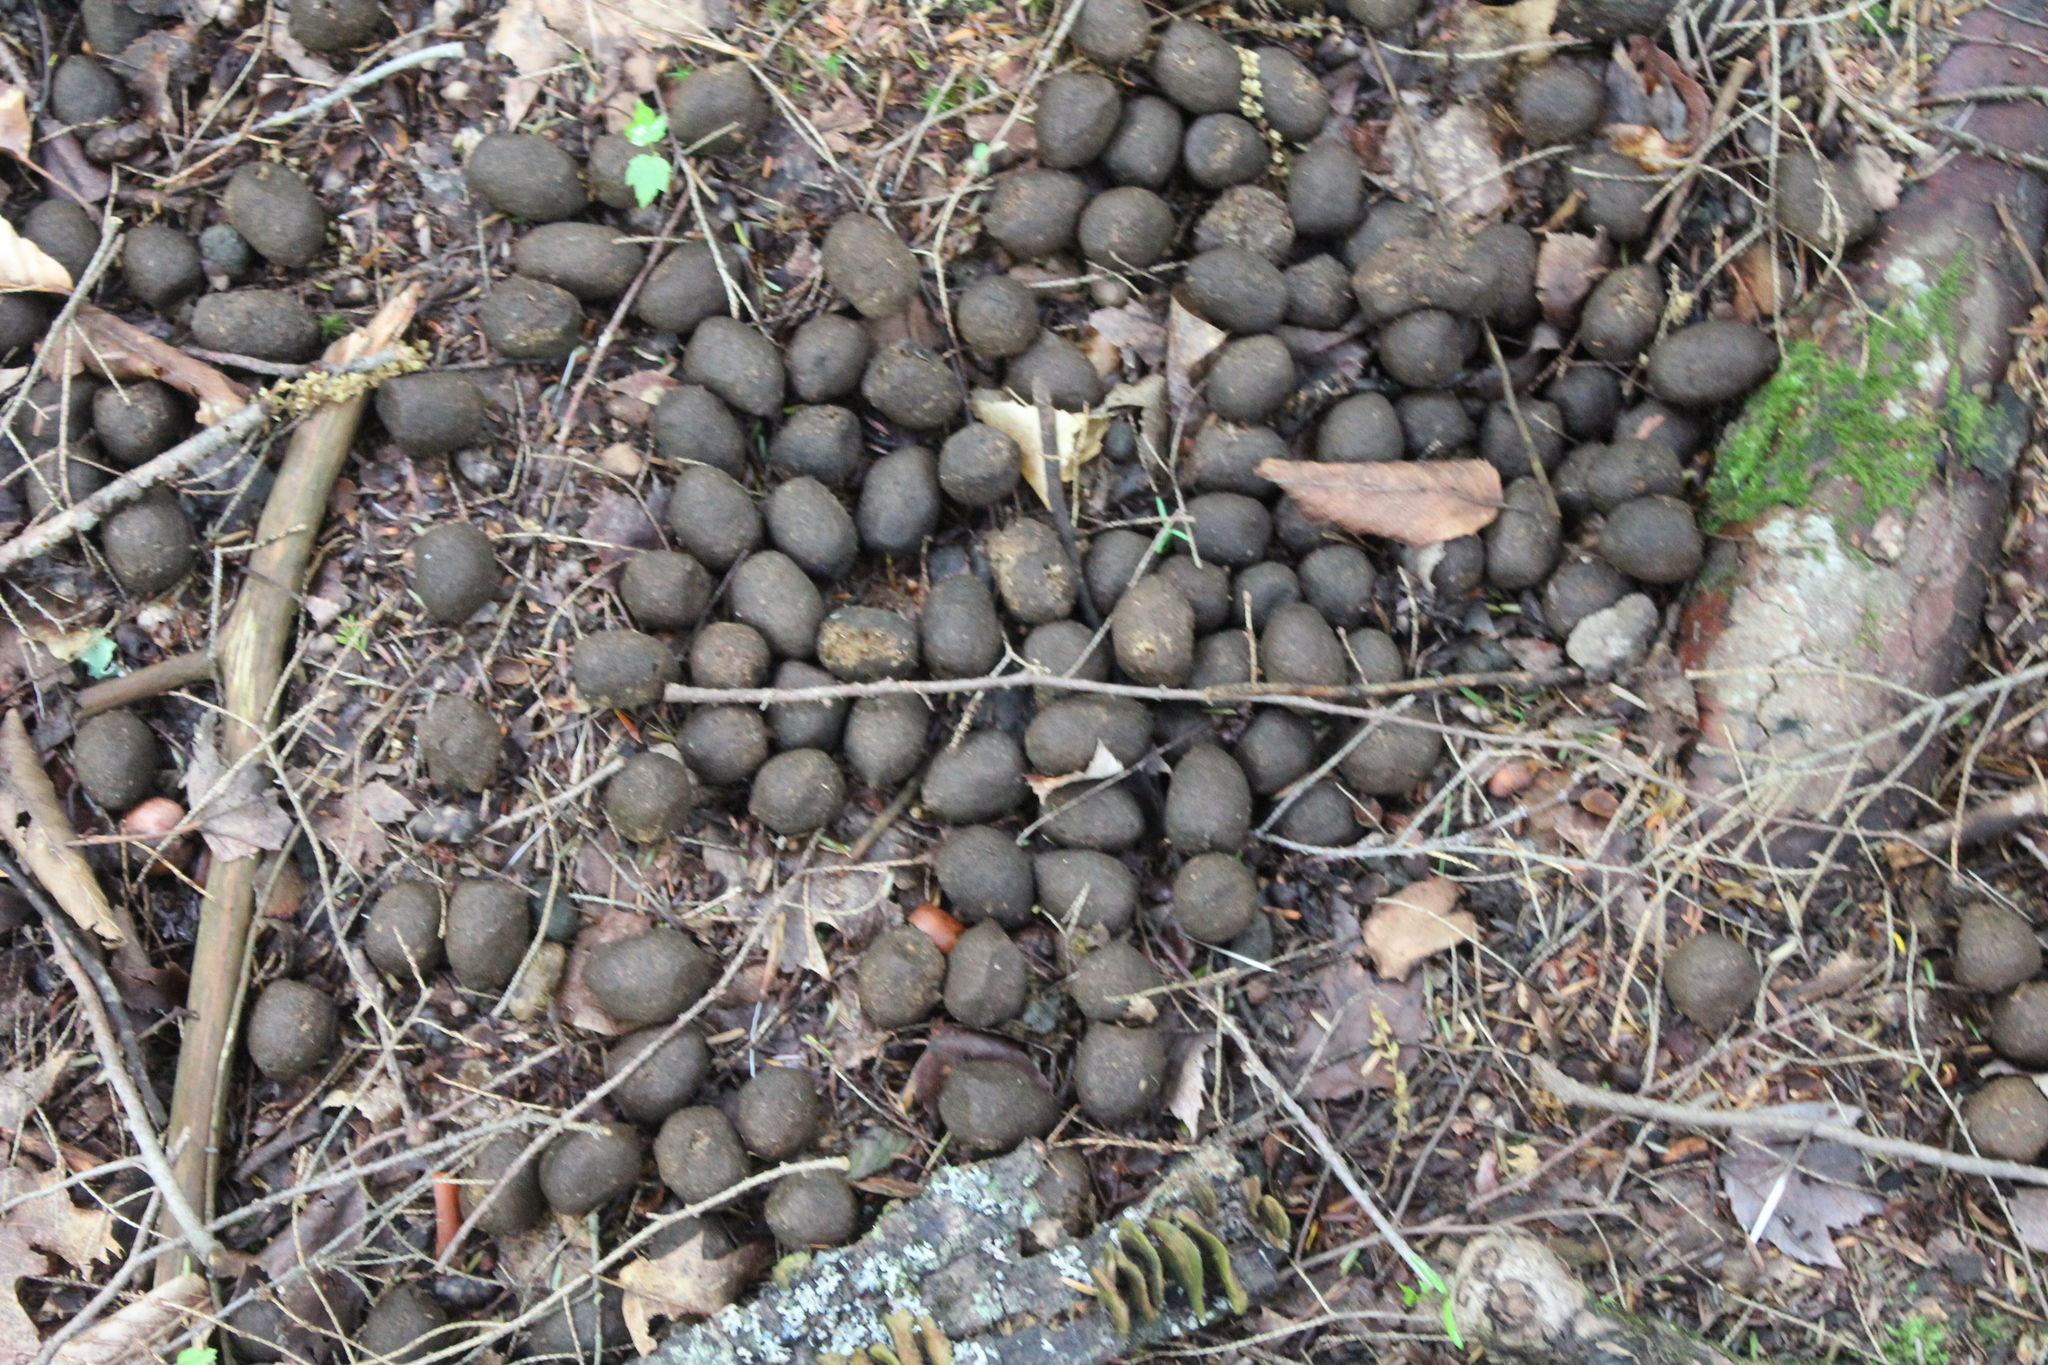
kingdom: Animalia
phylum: Chordata
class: Mammalia
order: Artiodactyla
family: Cervidae
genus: Alces
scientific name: Alces alces
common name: Moose
